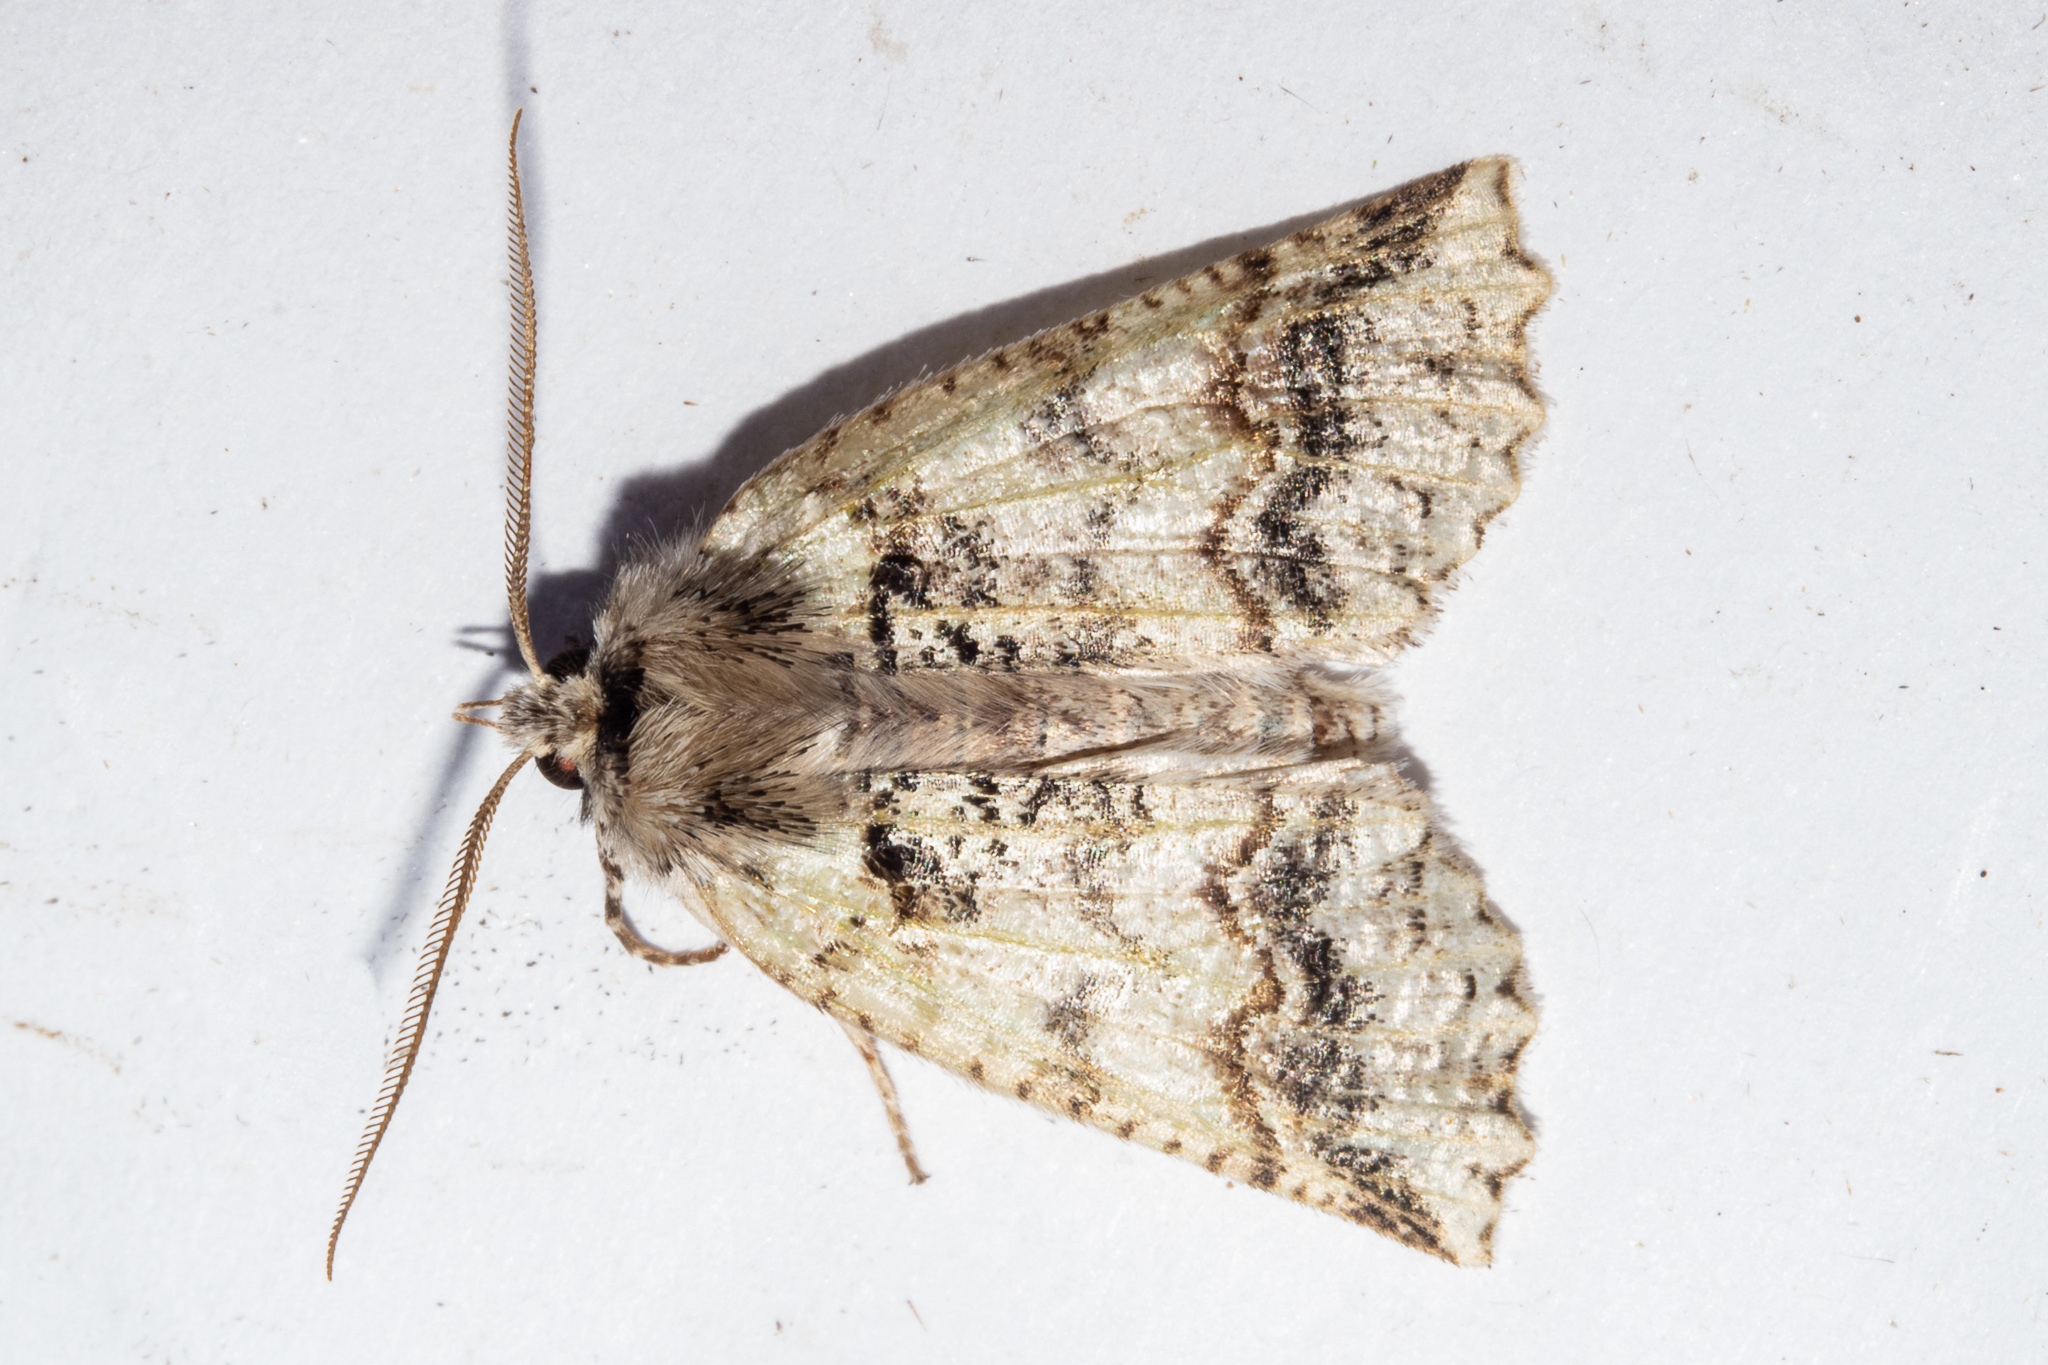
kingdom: Animalia
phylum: Arthropoda
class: Insecta
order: Lepidoptera
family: Geometridae
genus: Declana
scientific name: Declana floccosa
